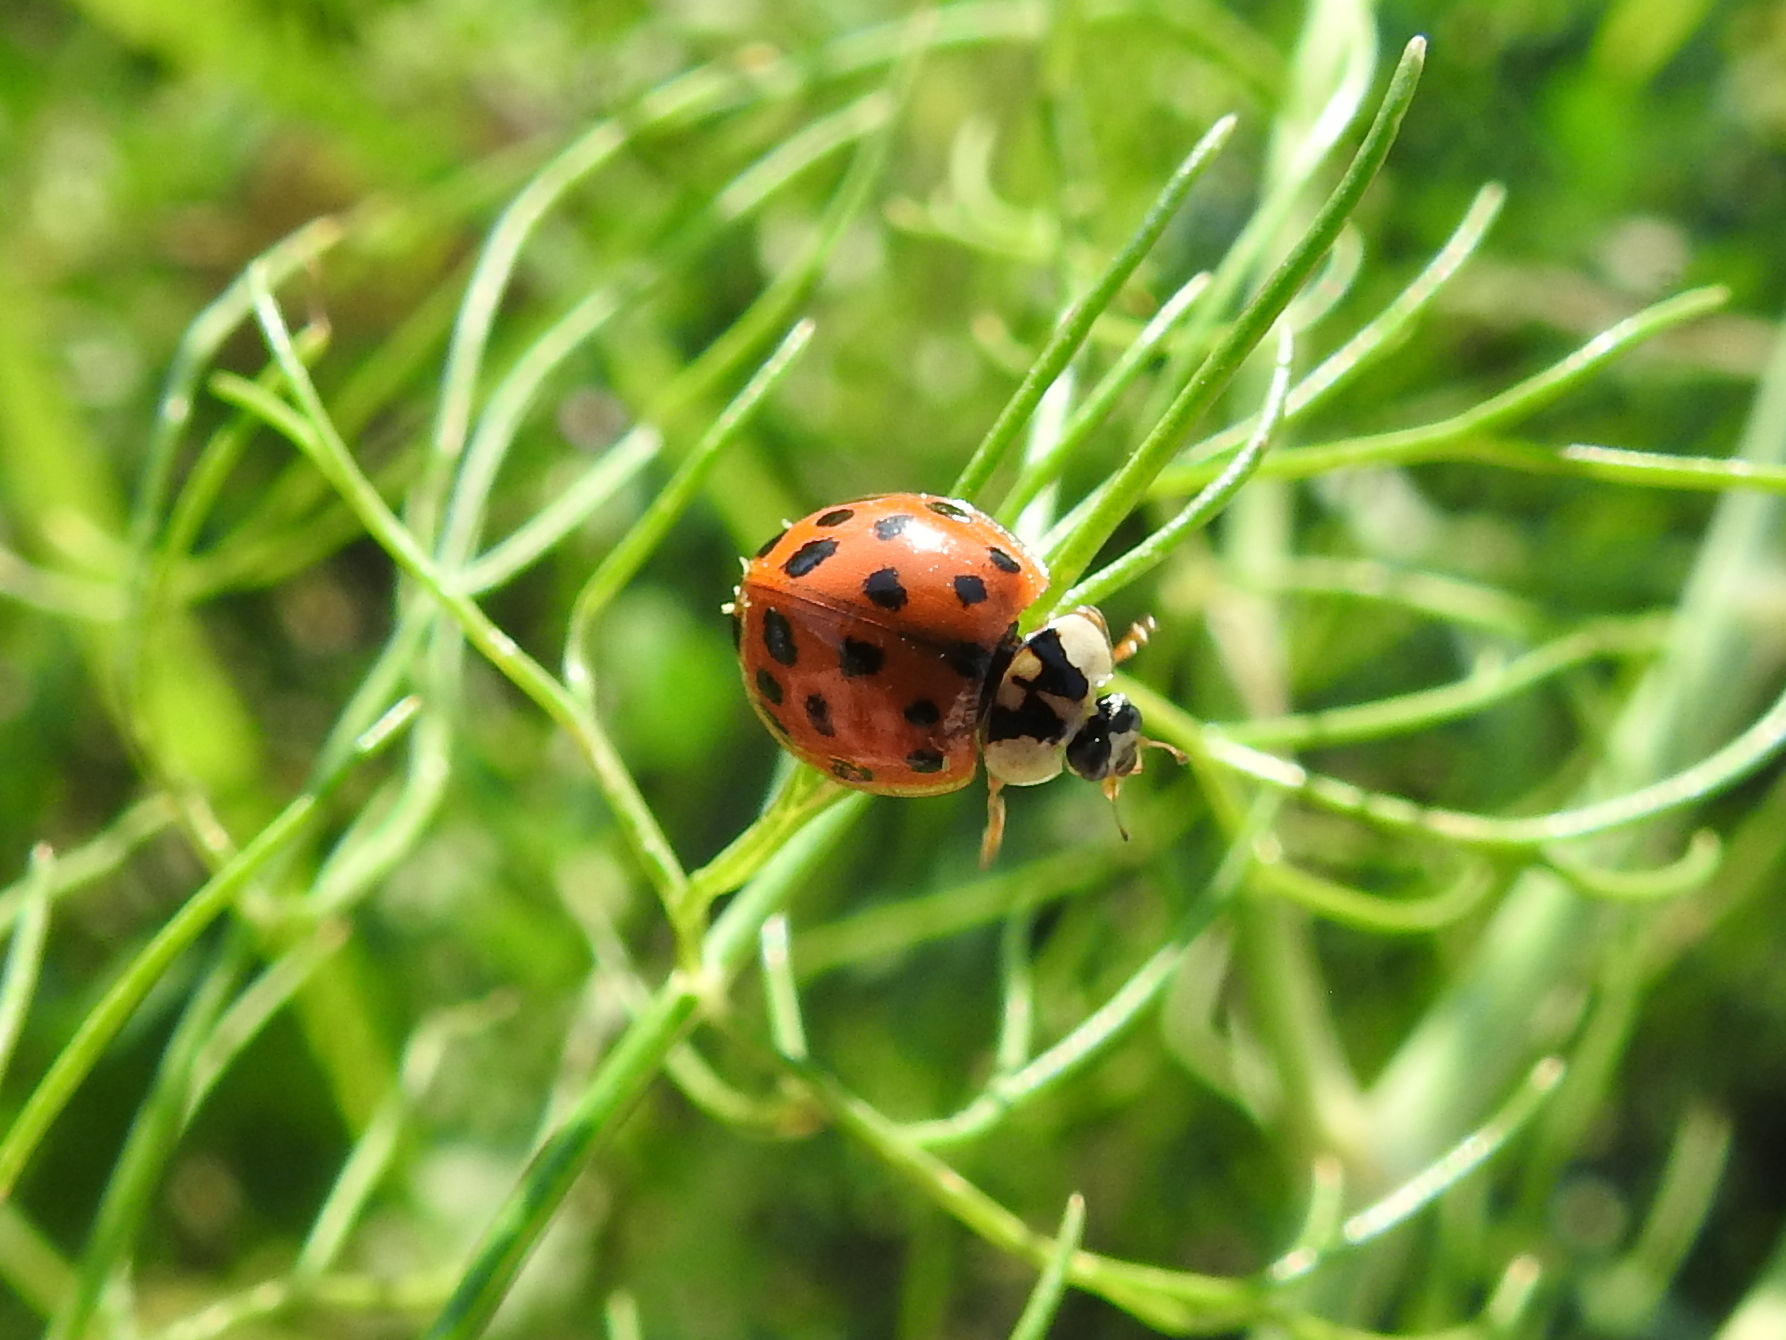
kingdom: Animalia
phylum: Arthropoda
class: Insecta
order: Coleoptera
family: Coccinellidae
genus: Harmonia
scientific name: Harmonia axyridis
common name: Harlequin ladybird
